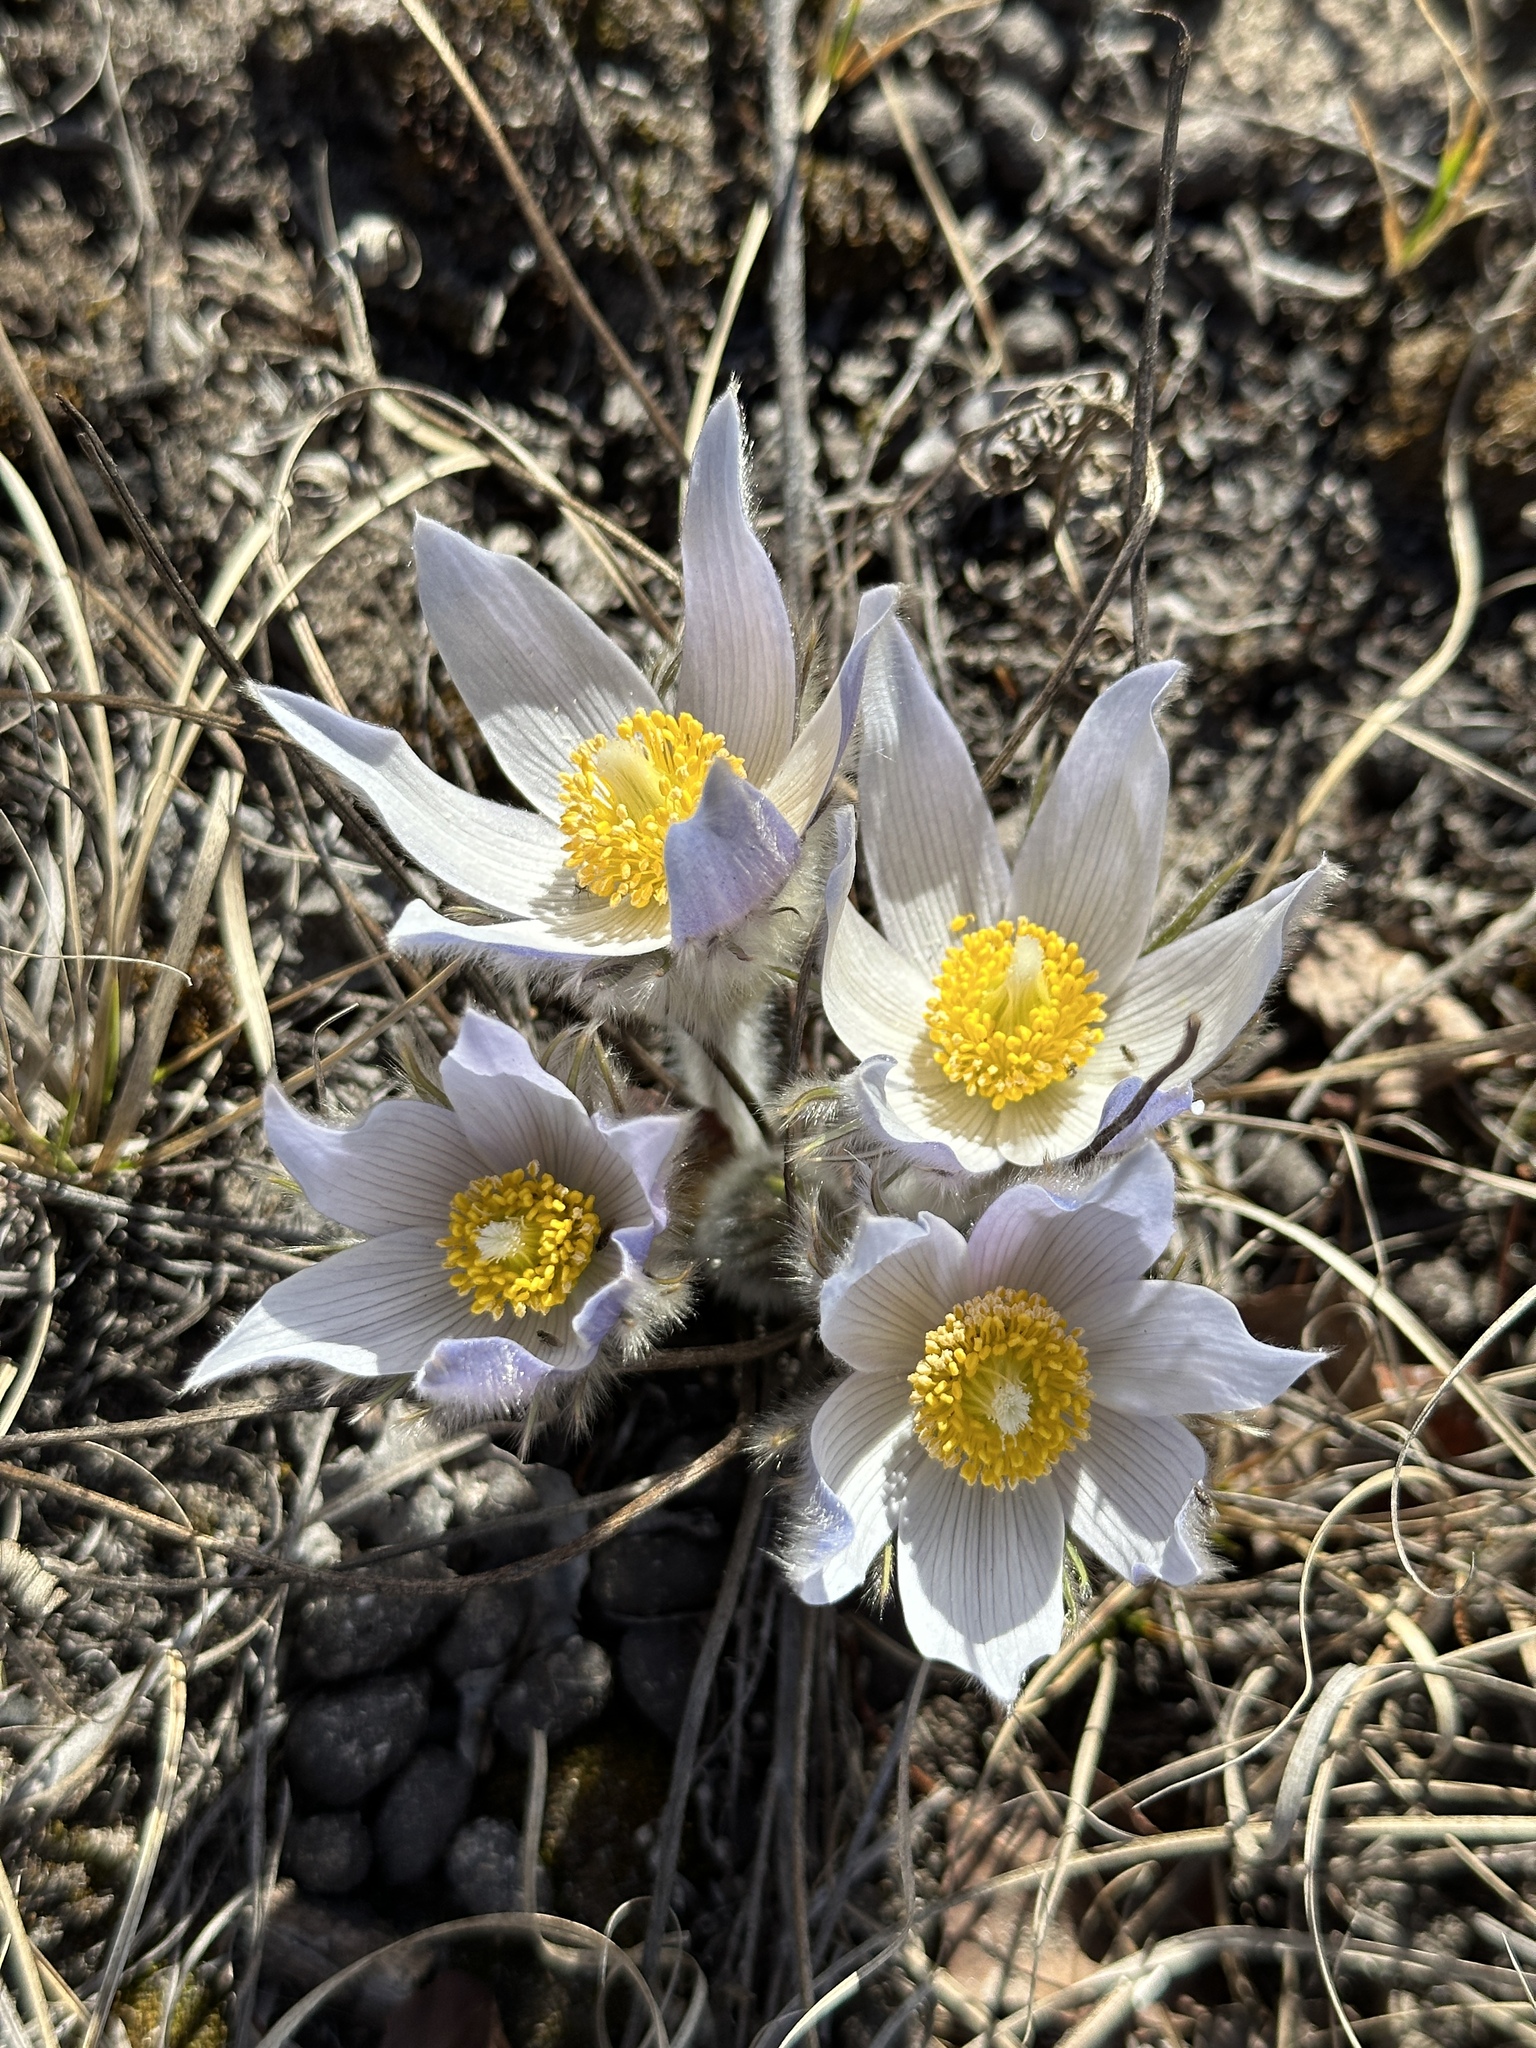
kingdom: Plantae
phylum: Tracheophyta
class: Magnoliopsida
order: Ranunculales
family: Ranunculaceae
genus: Pulsatilla
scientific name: Pulsatilla nuttalliana
